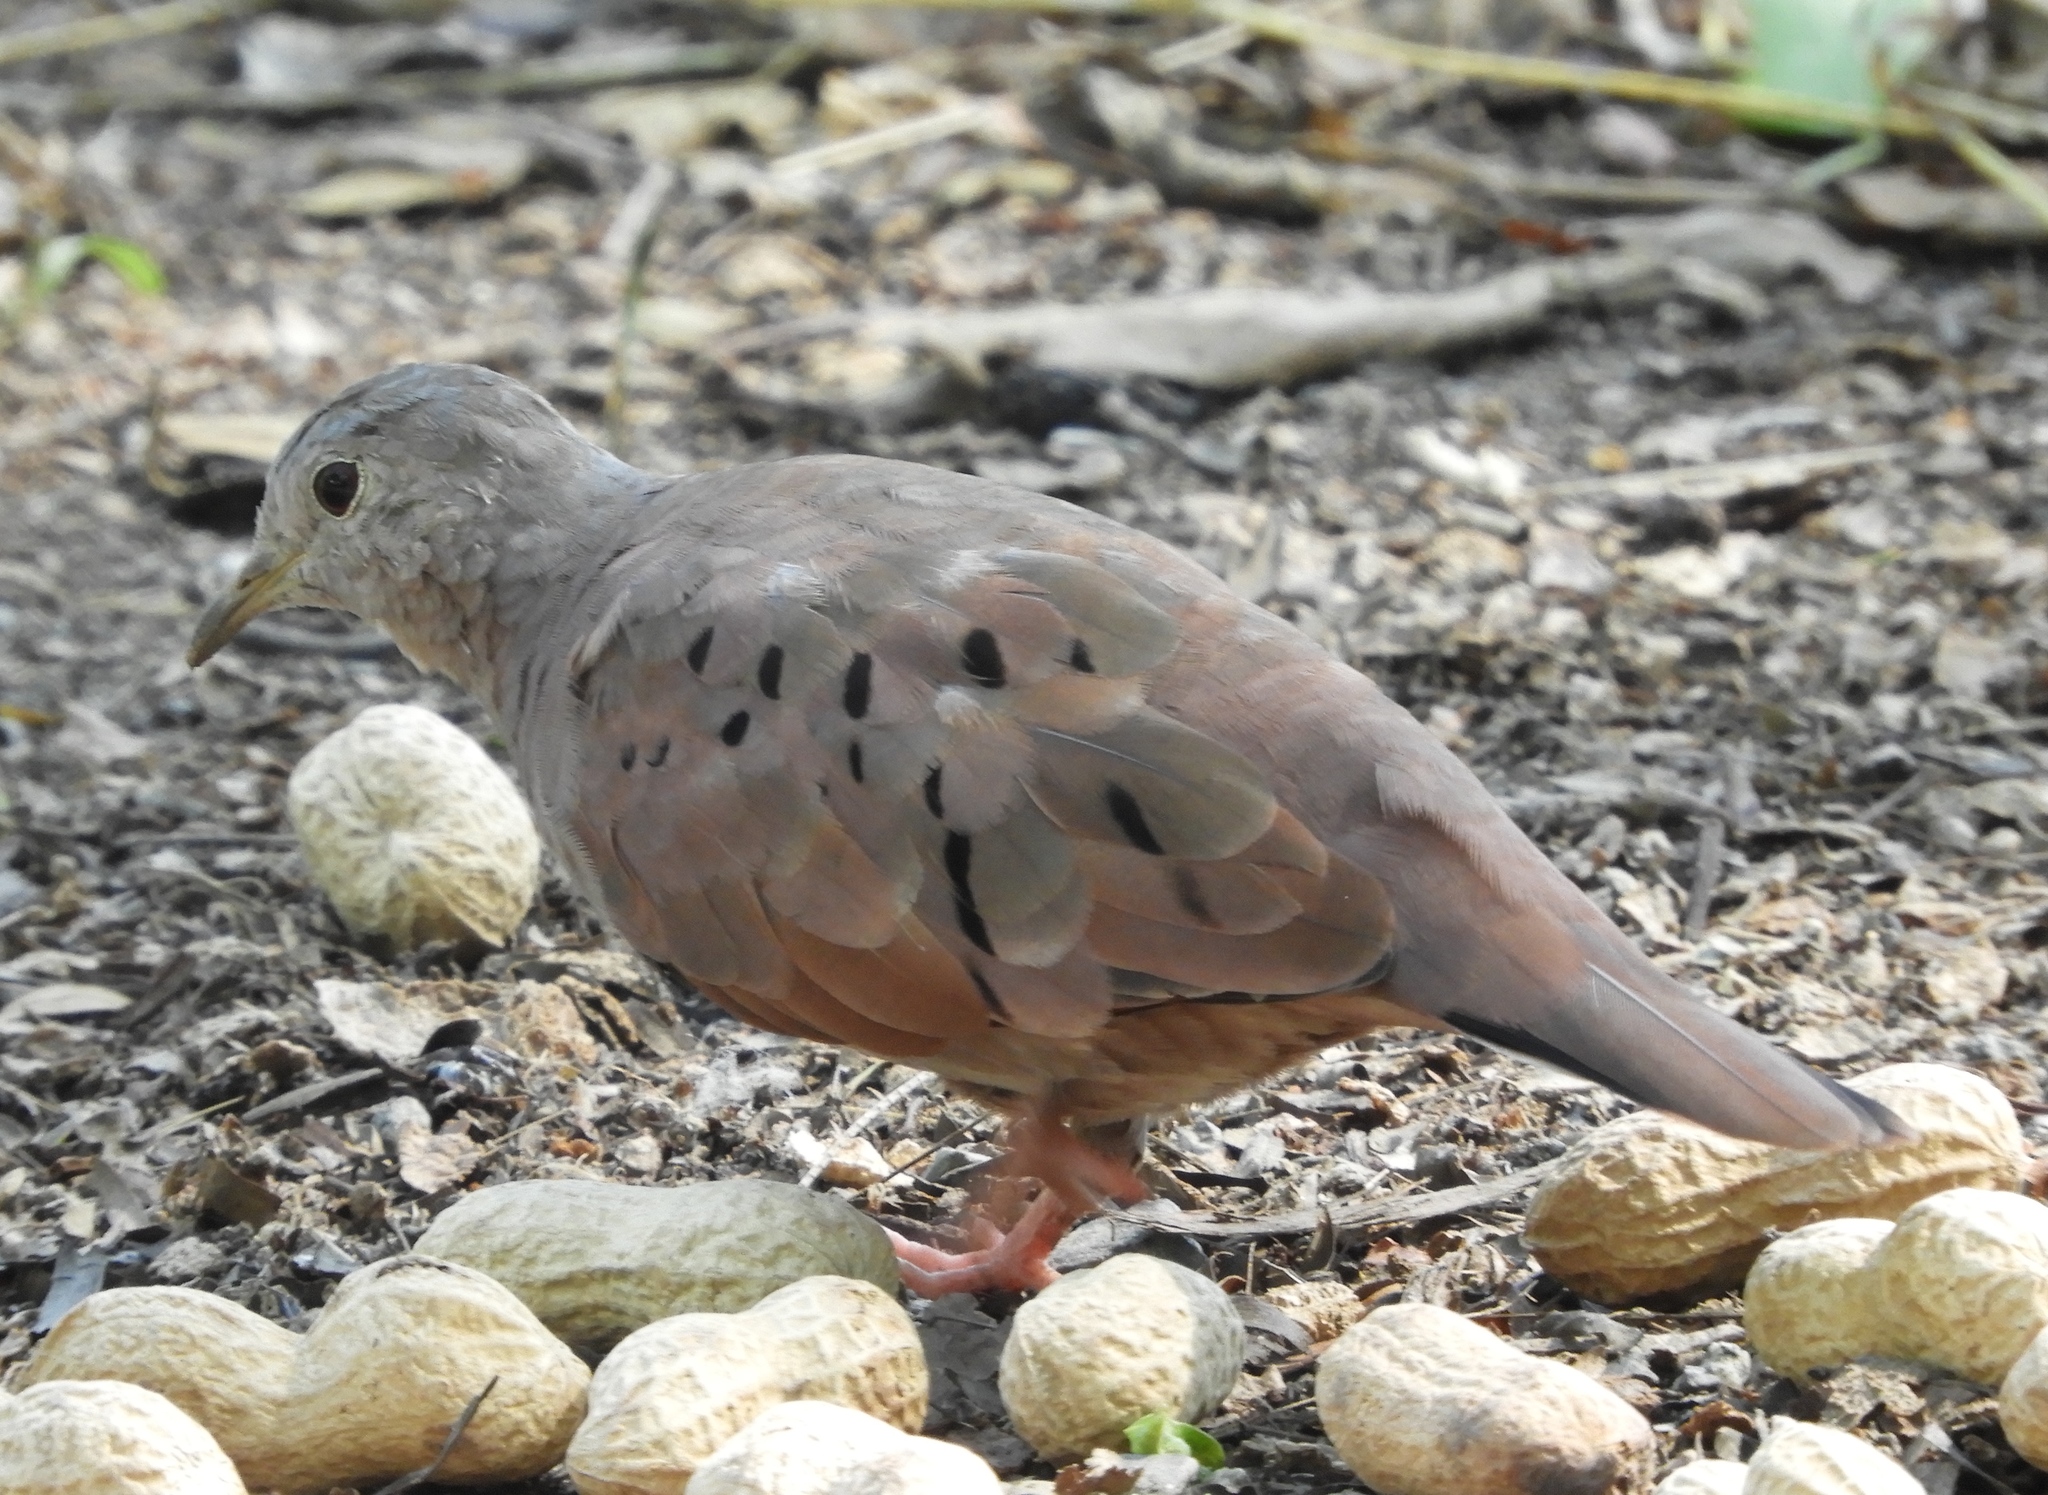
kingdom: Animalia
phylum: Chordata
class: Aves
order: Columbiformes
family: Columbidae
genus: Columbina
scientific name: Columbina talpacoti
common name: Ruddy ground dove
